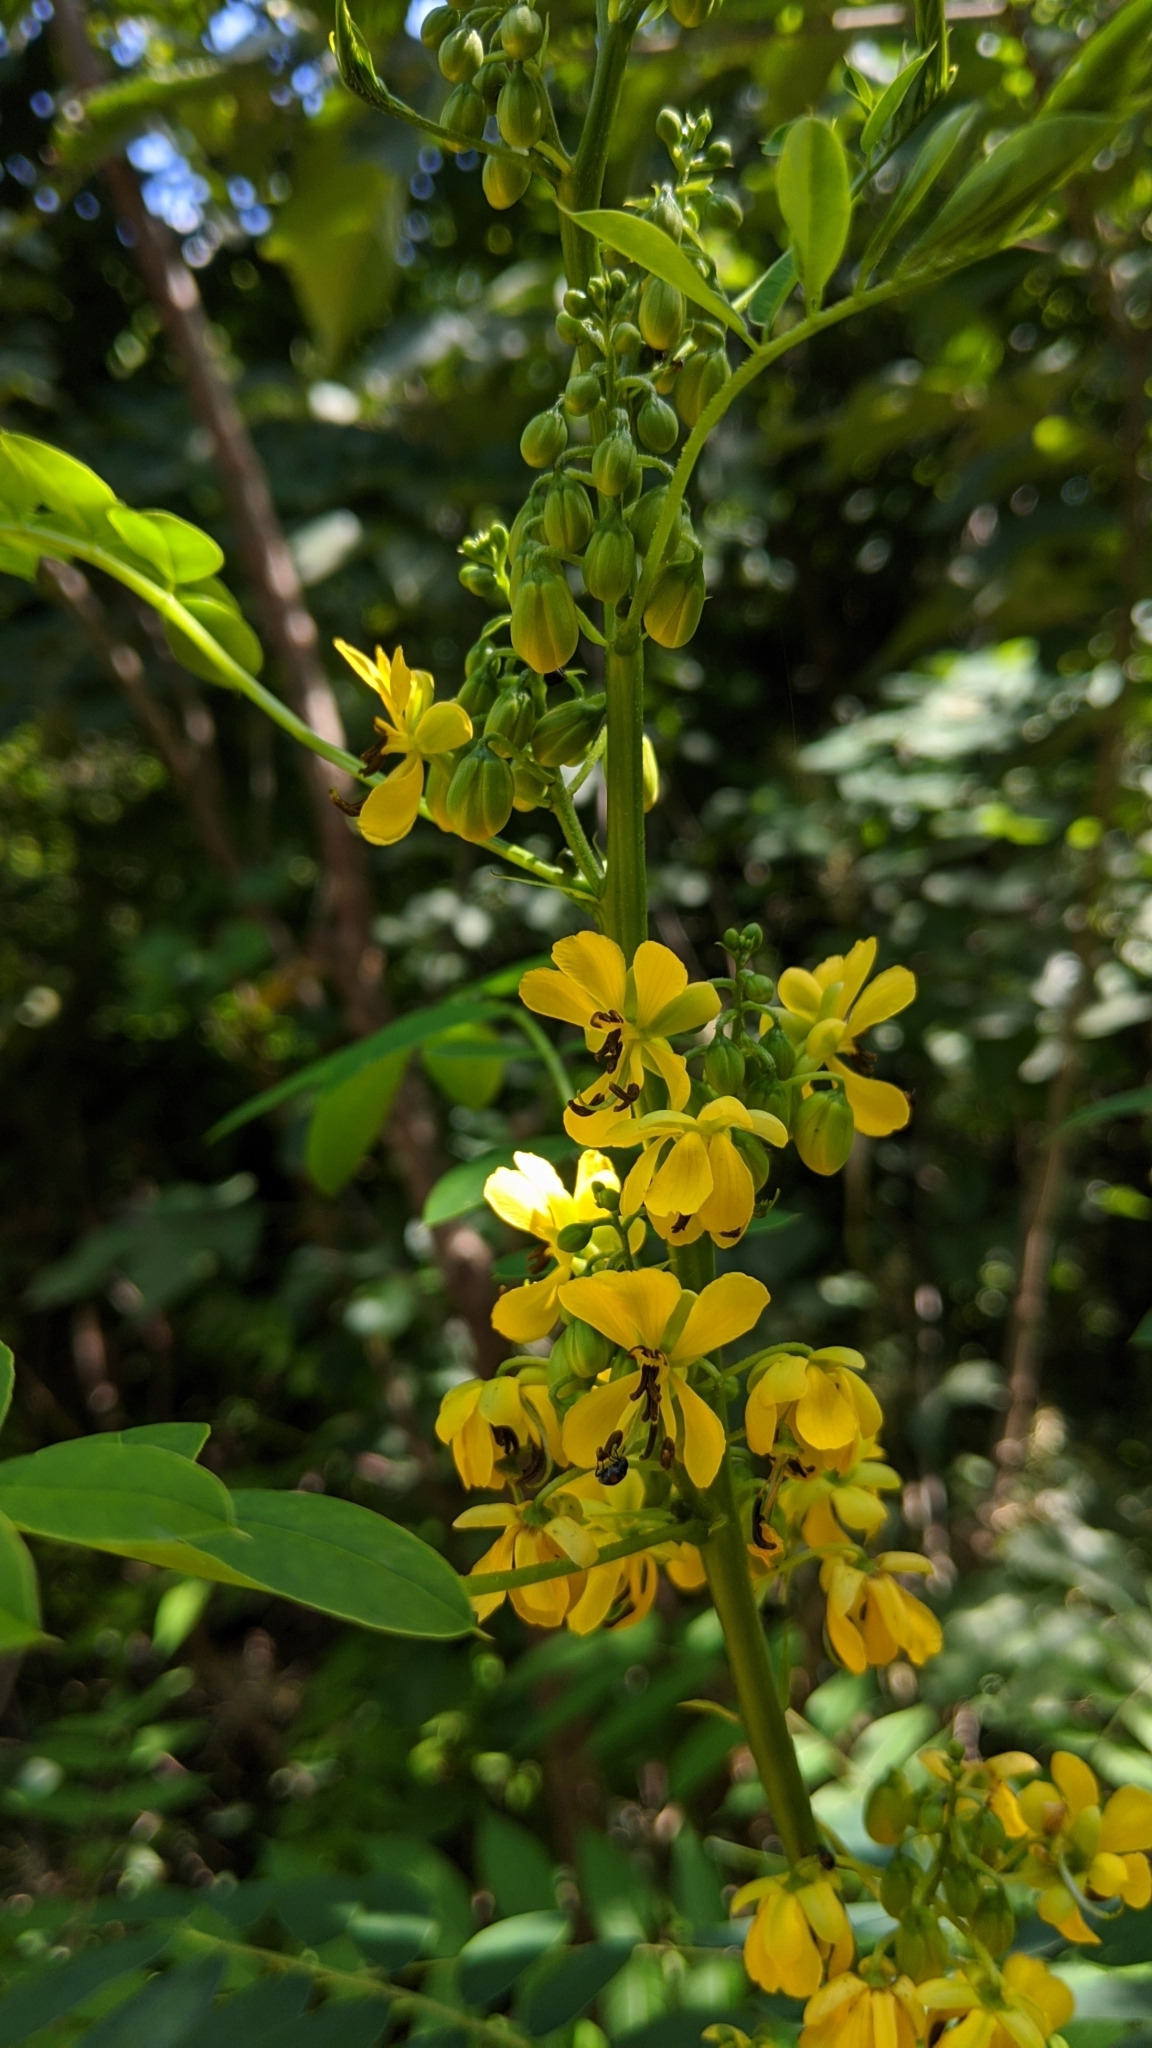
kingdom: Plantae
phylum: Tracheophyta
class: Magnoliopsida
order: Fabales
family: Fabaceae
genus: Senna
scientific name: Senna marilandica
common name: American senna
